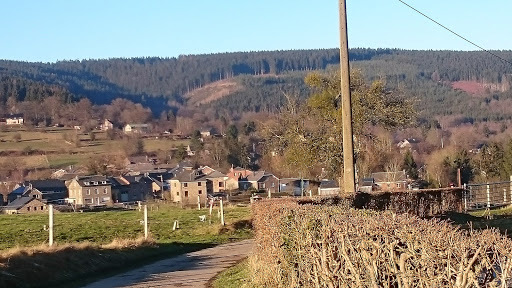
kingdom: Plantae
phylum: Tracheophyta
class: Magnoliopsida
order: Santalales
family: Viscaceae
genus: Viscum
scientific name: Viscum album
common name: Mistletoe
